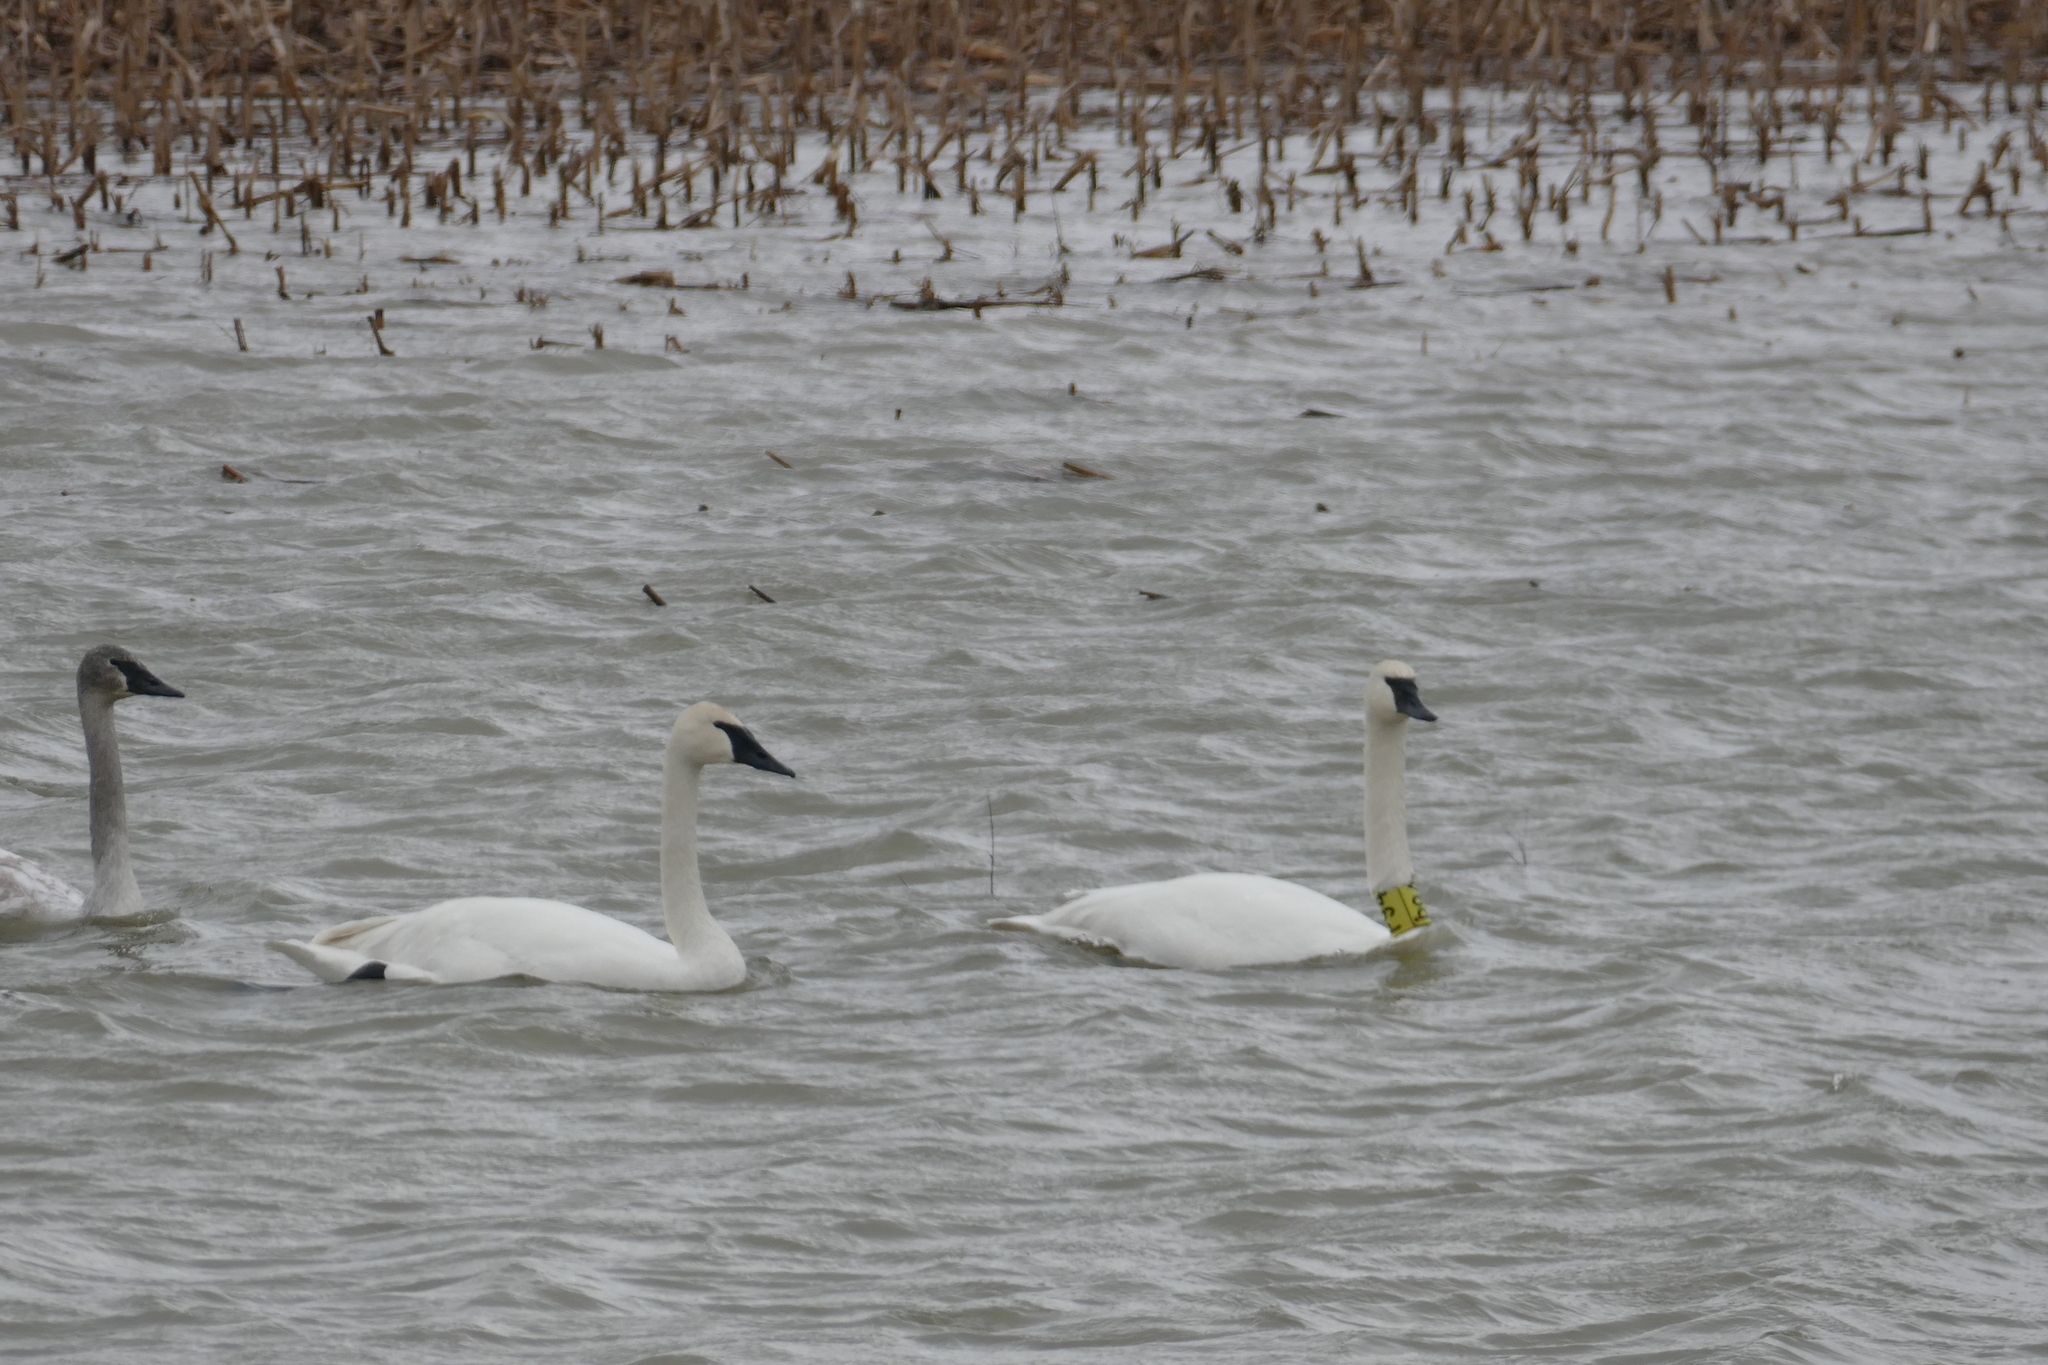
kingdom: Animalia
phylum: Chordata
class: Aves
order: Anseriformes
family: Anatidae
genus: Cygnus
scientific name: Cygnus buccinator
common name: Trumpeter swan
